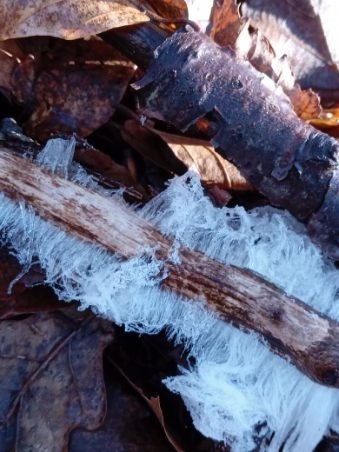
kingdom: Fungi
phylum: Basidiomycota
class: Agaricomycetes
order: Auriculariales
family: Auriculariaceae
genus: Exidiopsis
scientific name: Exidiopsis effusa
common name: Hair ice crust
